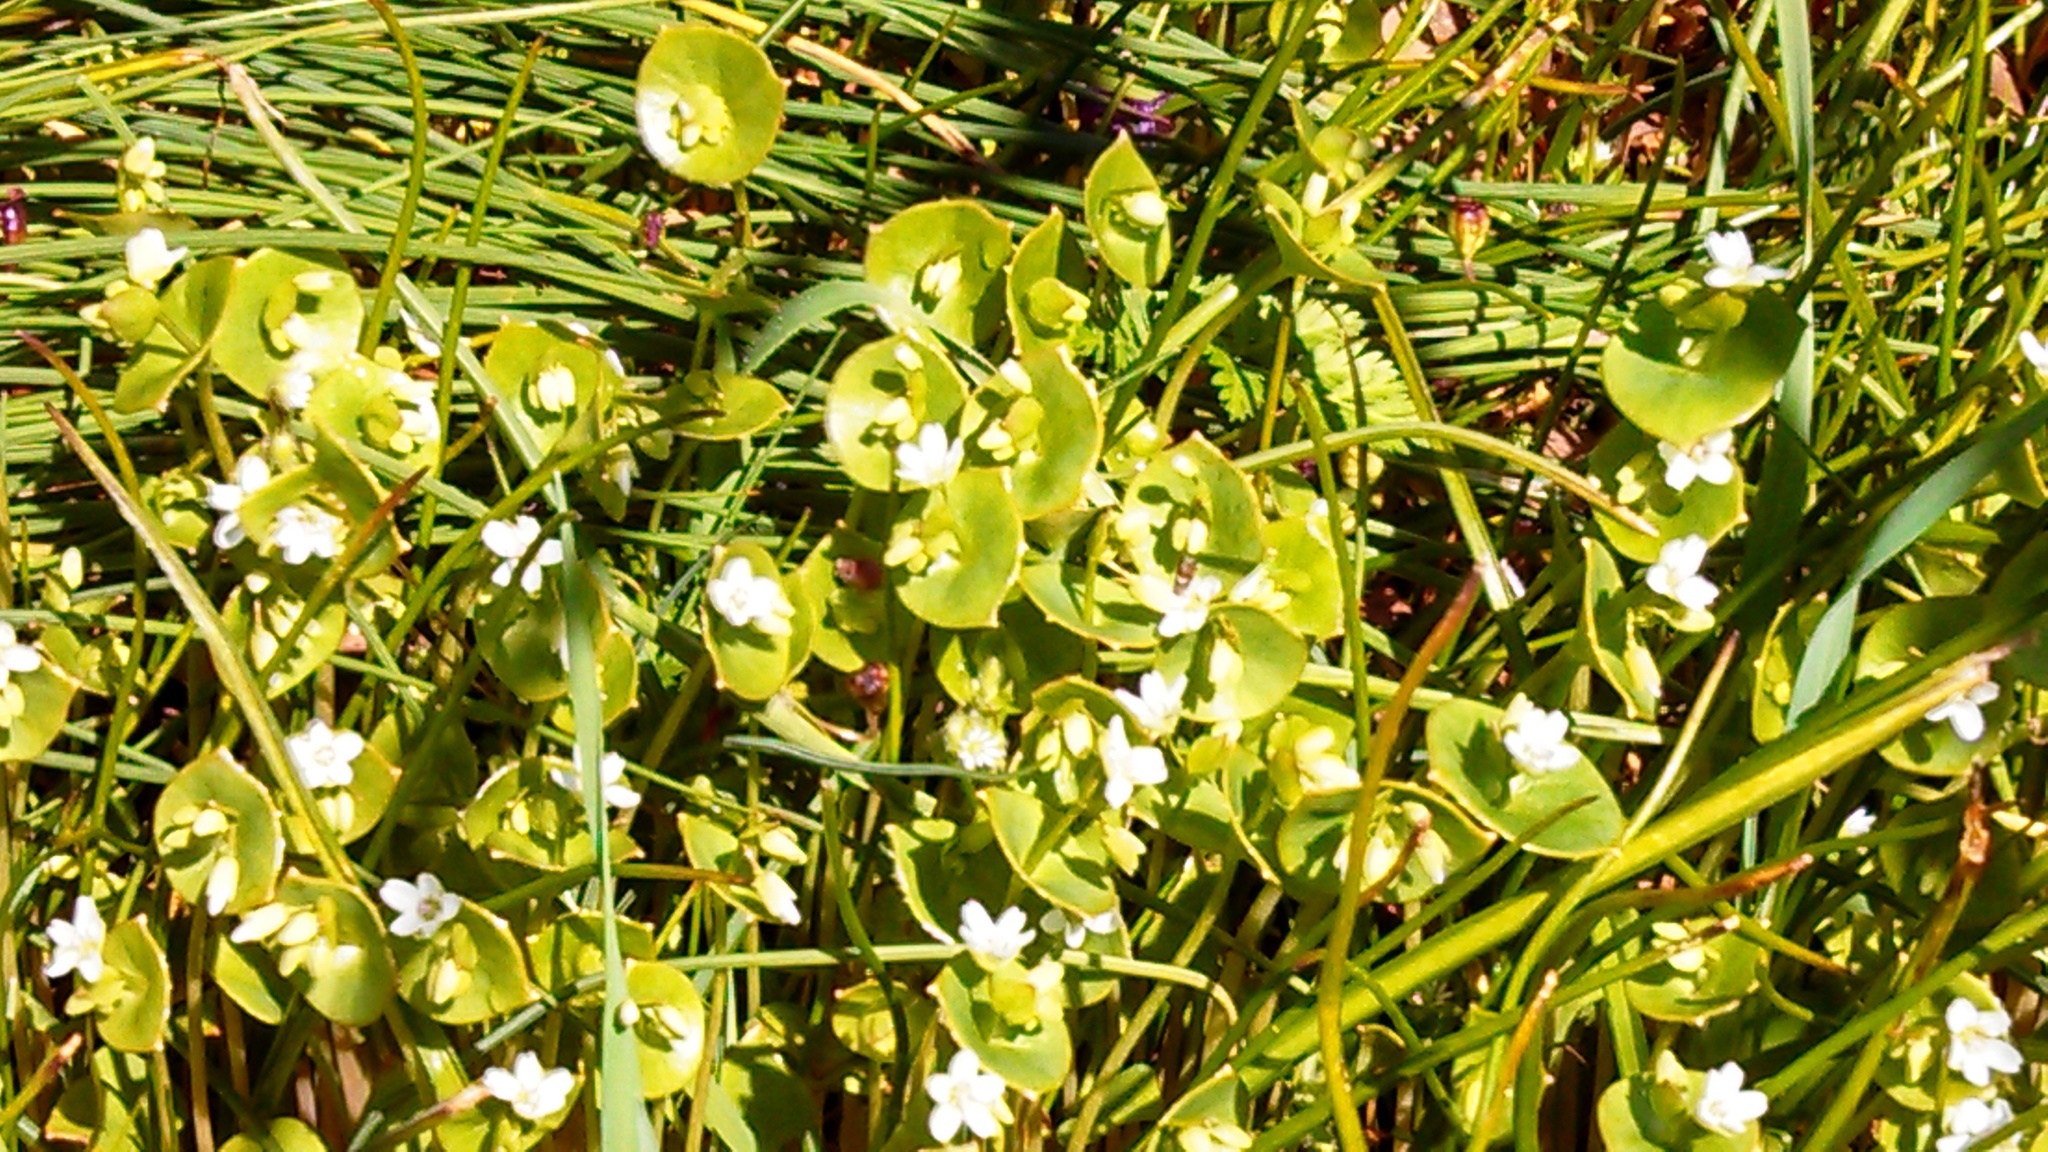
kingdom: Plantae
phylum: Tracheophyta
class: Magnoliopsida
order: Caryophyllales
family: Montiaceae
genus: Claytonia
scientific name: Claytonia perfoliata
